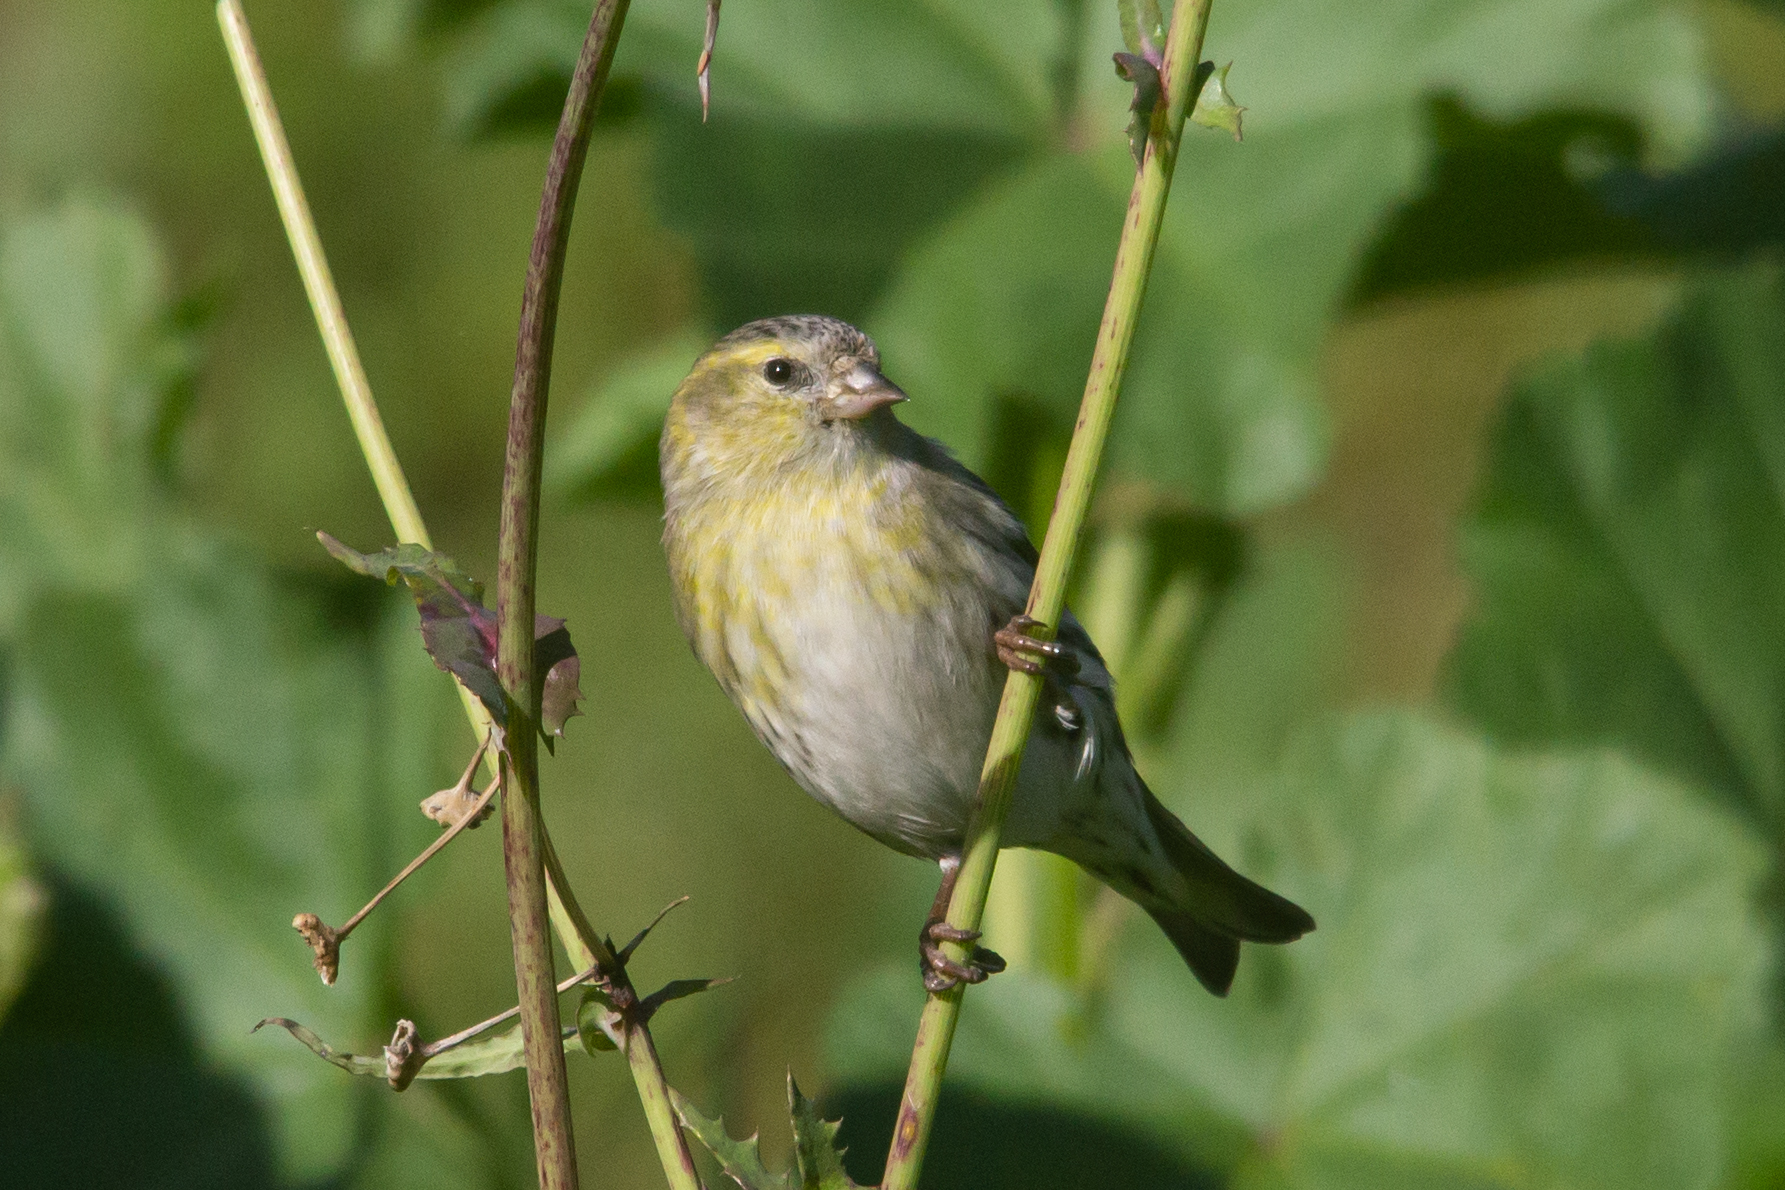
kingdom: Animalia
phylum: Chordata
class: Aves
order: Passeriformes
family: Fringillidae
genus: Spinus
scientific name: Spinus spinus
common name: Eurasian siskin
